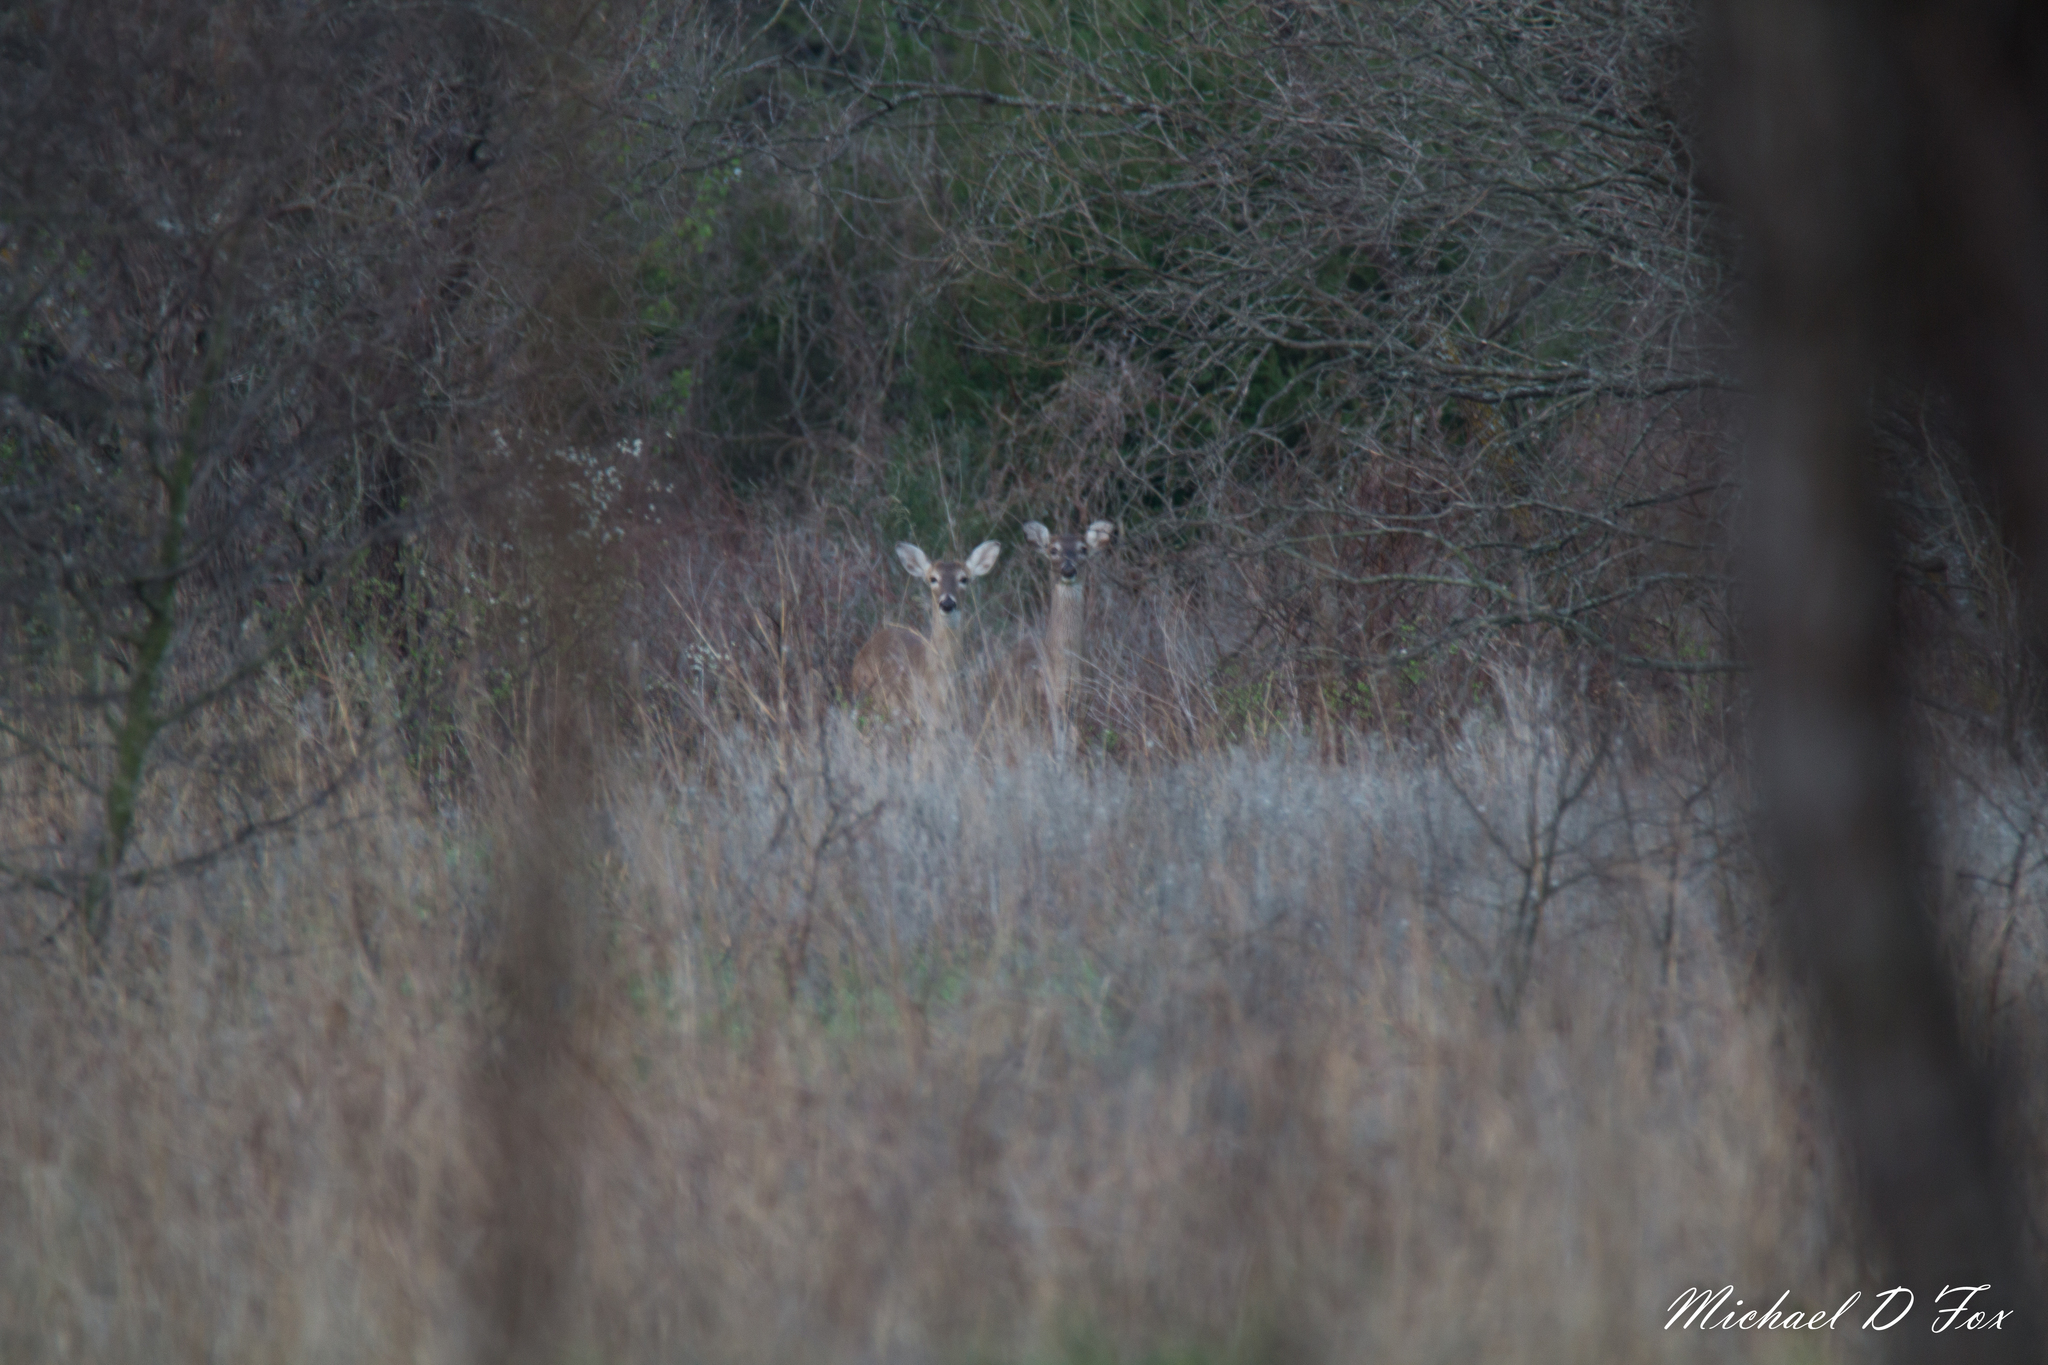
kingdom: Animalia
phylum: Chordata
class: Mammalia
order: Artiodactyla
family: Cervidae
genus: Odocoileus
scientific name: Odocoileus virginianus
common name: White-tailed deer
